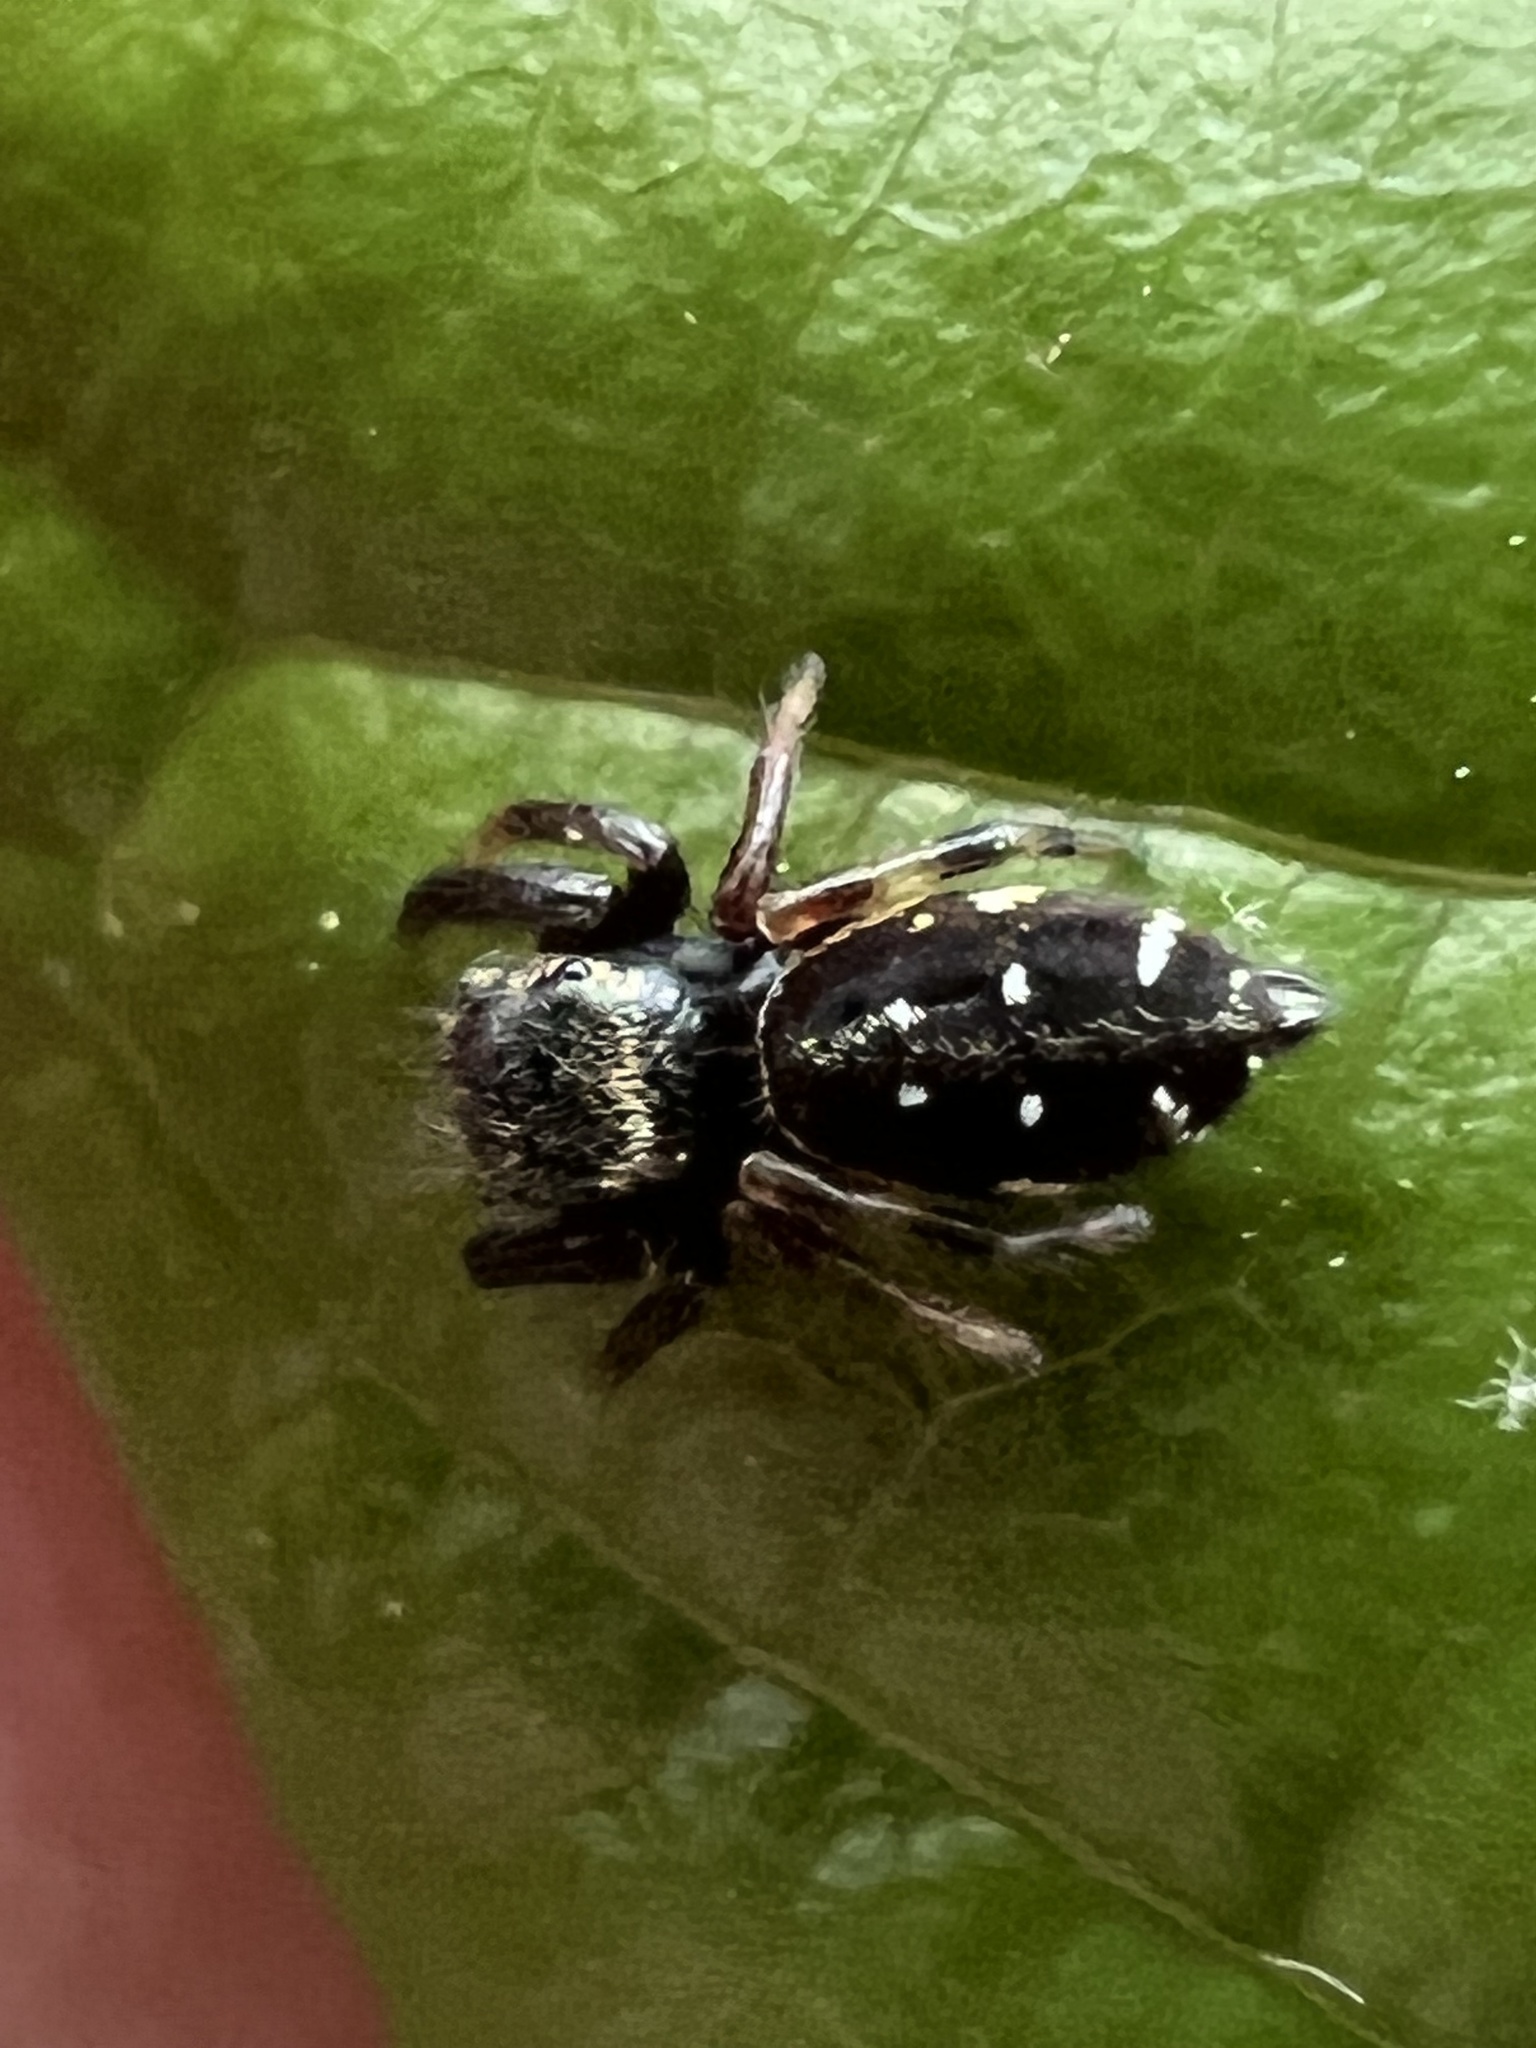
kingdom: Animalia
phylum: Arthropoda
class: Arachnida
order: Araneae
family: Salticidae
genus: Paraphidippus
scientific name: Paraphidippus aurantius
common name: Jumping spiders
